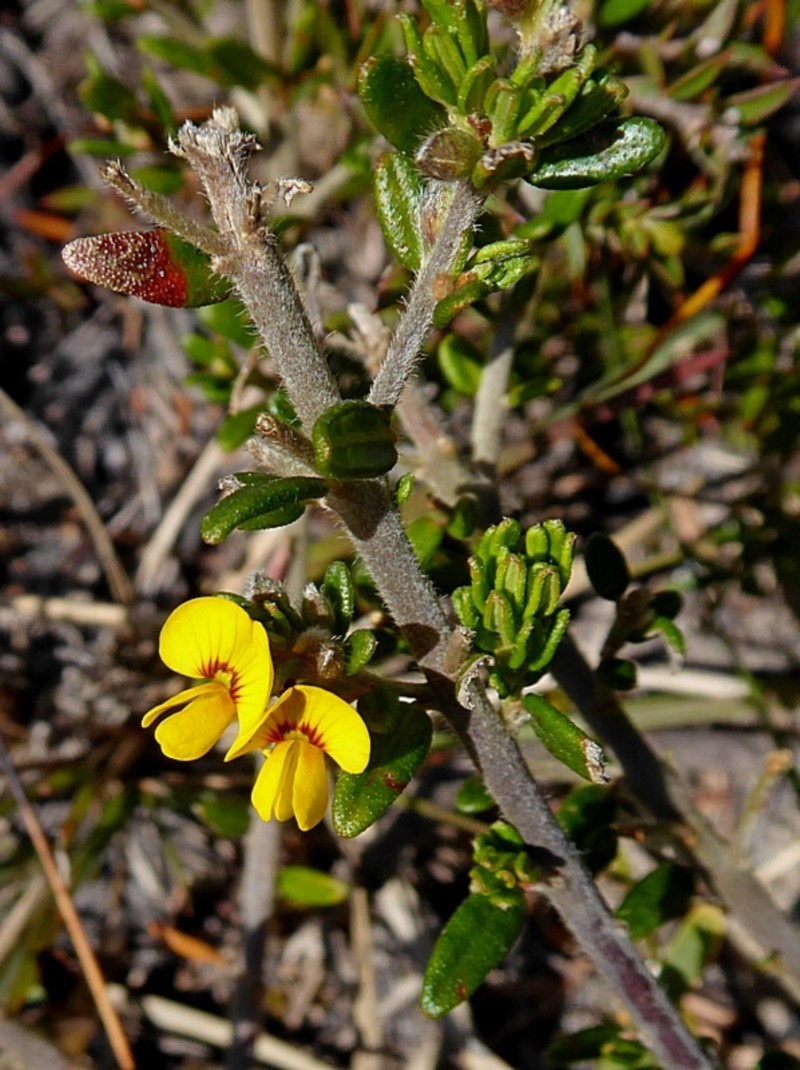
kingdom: Plantae
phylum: Tracheophyta
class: Magnoliopsida
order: Fabales
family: Fabaceae
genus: Aotus
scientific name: Aotus ericoides
